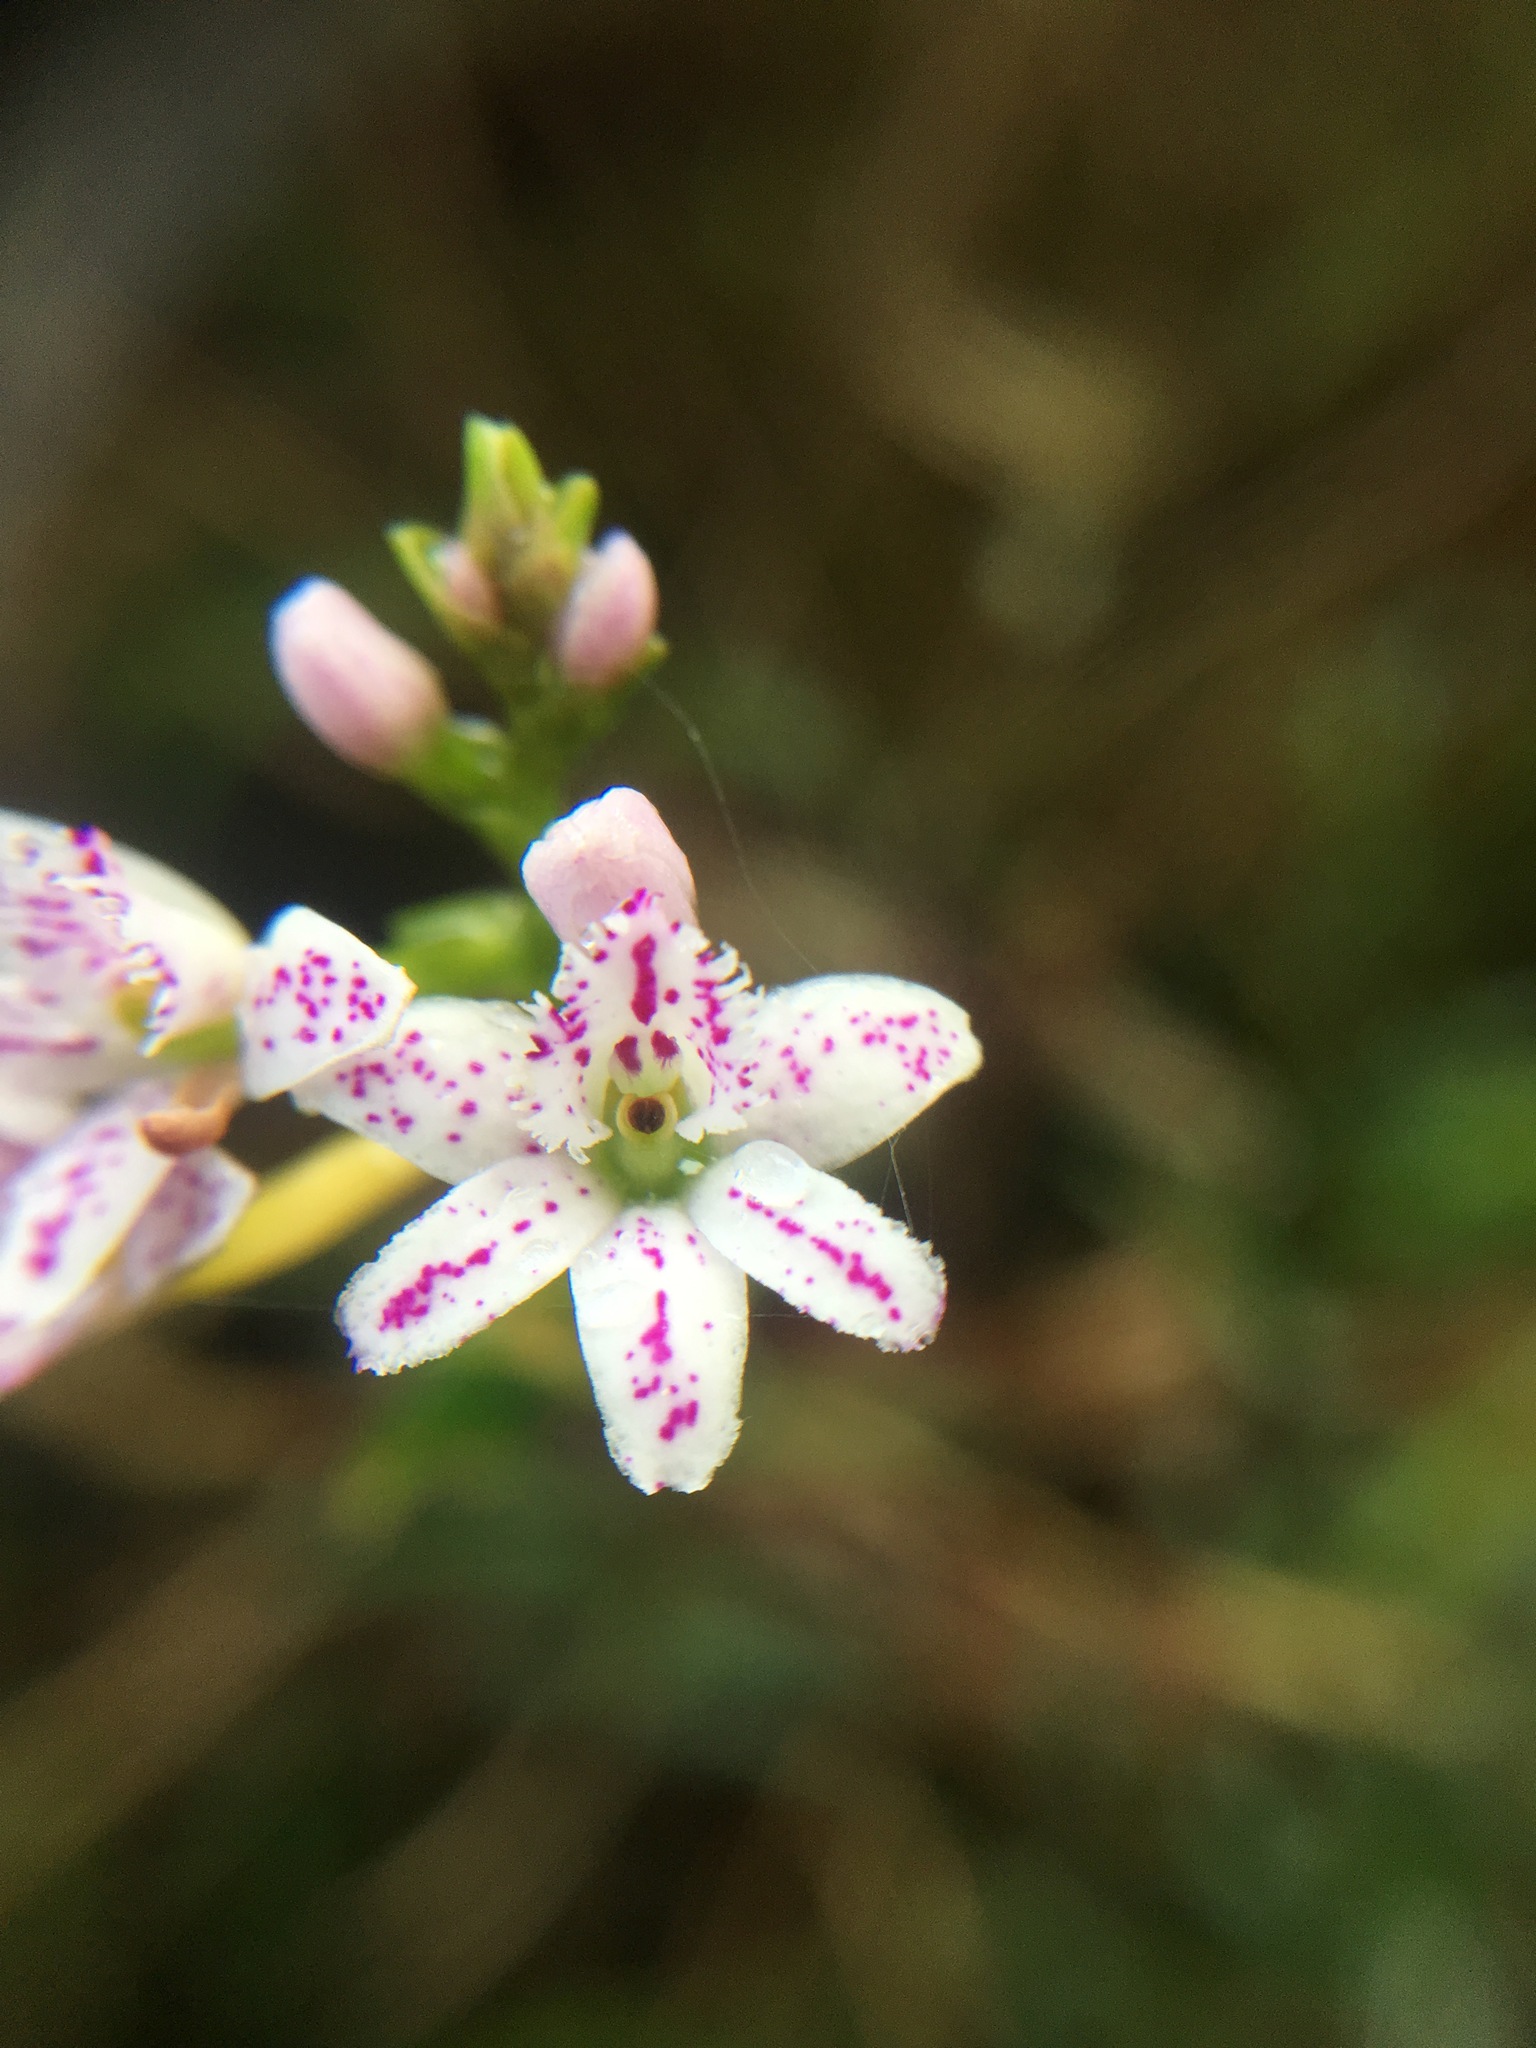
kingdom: Plantae
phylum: Tracheophyta
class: Liliopsida
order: Asparagales
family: Orchidaceae
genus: Epidendrum
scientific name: Epidendrum fimbriatum
